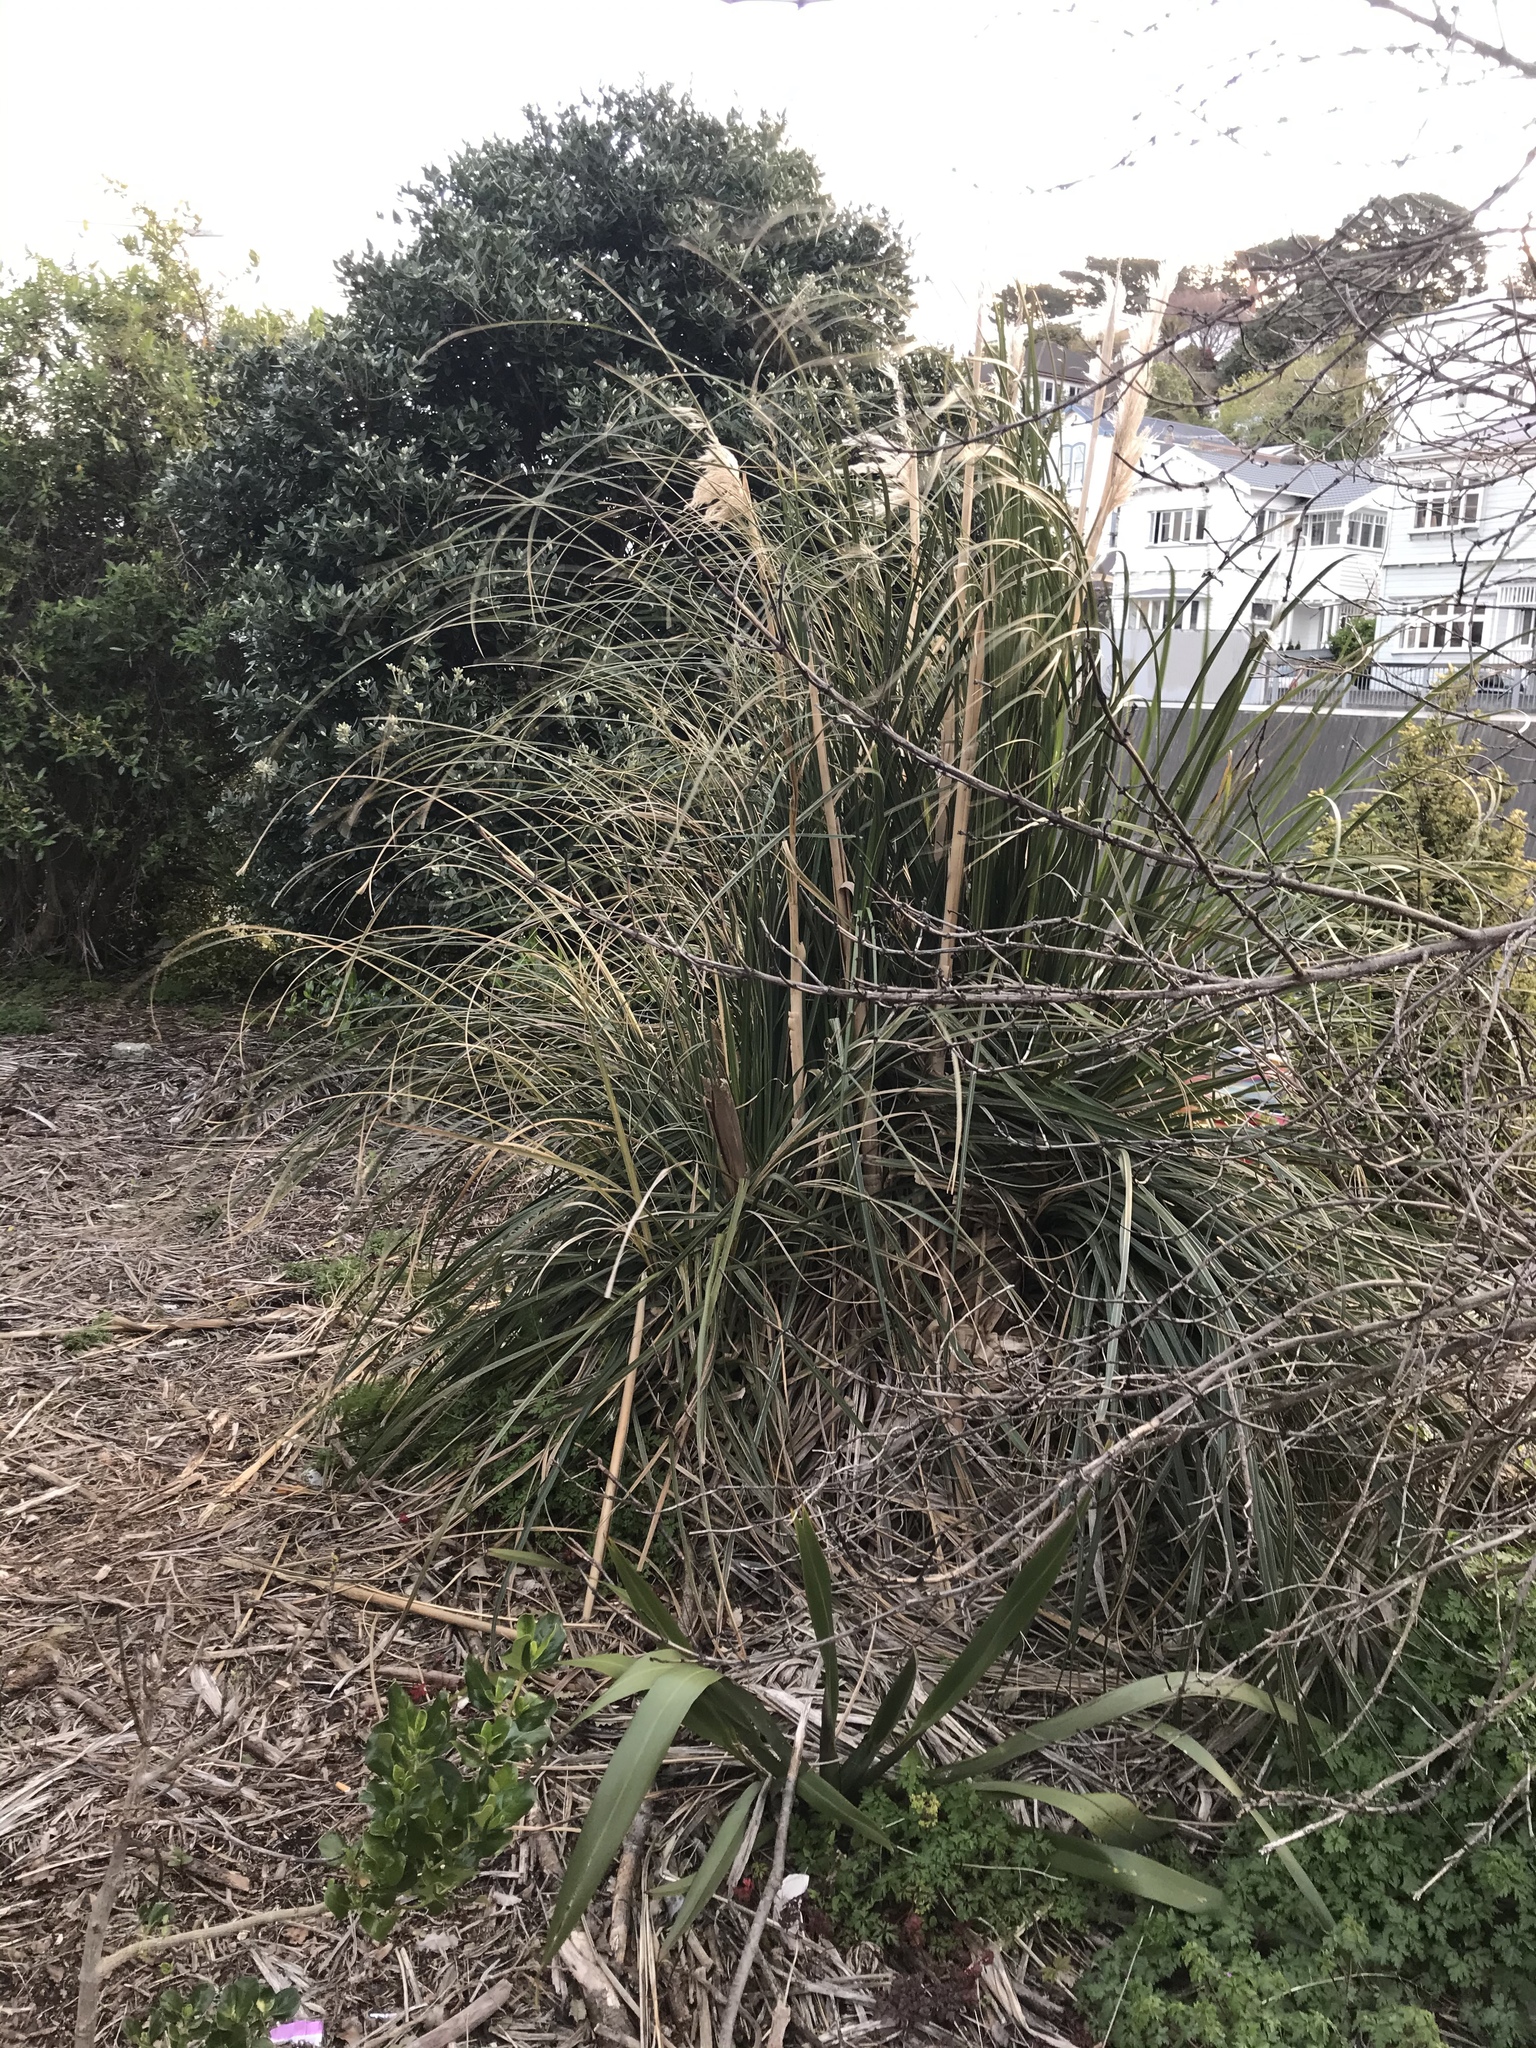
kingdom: Plantae
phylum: Tracheophyta
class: Liliopsida
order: Poales
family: Poaceae
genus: Cortaderia
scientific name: Cortaderia selloana
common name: Uruguayan pampas grass
